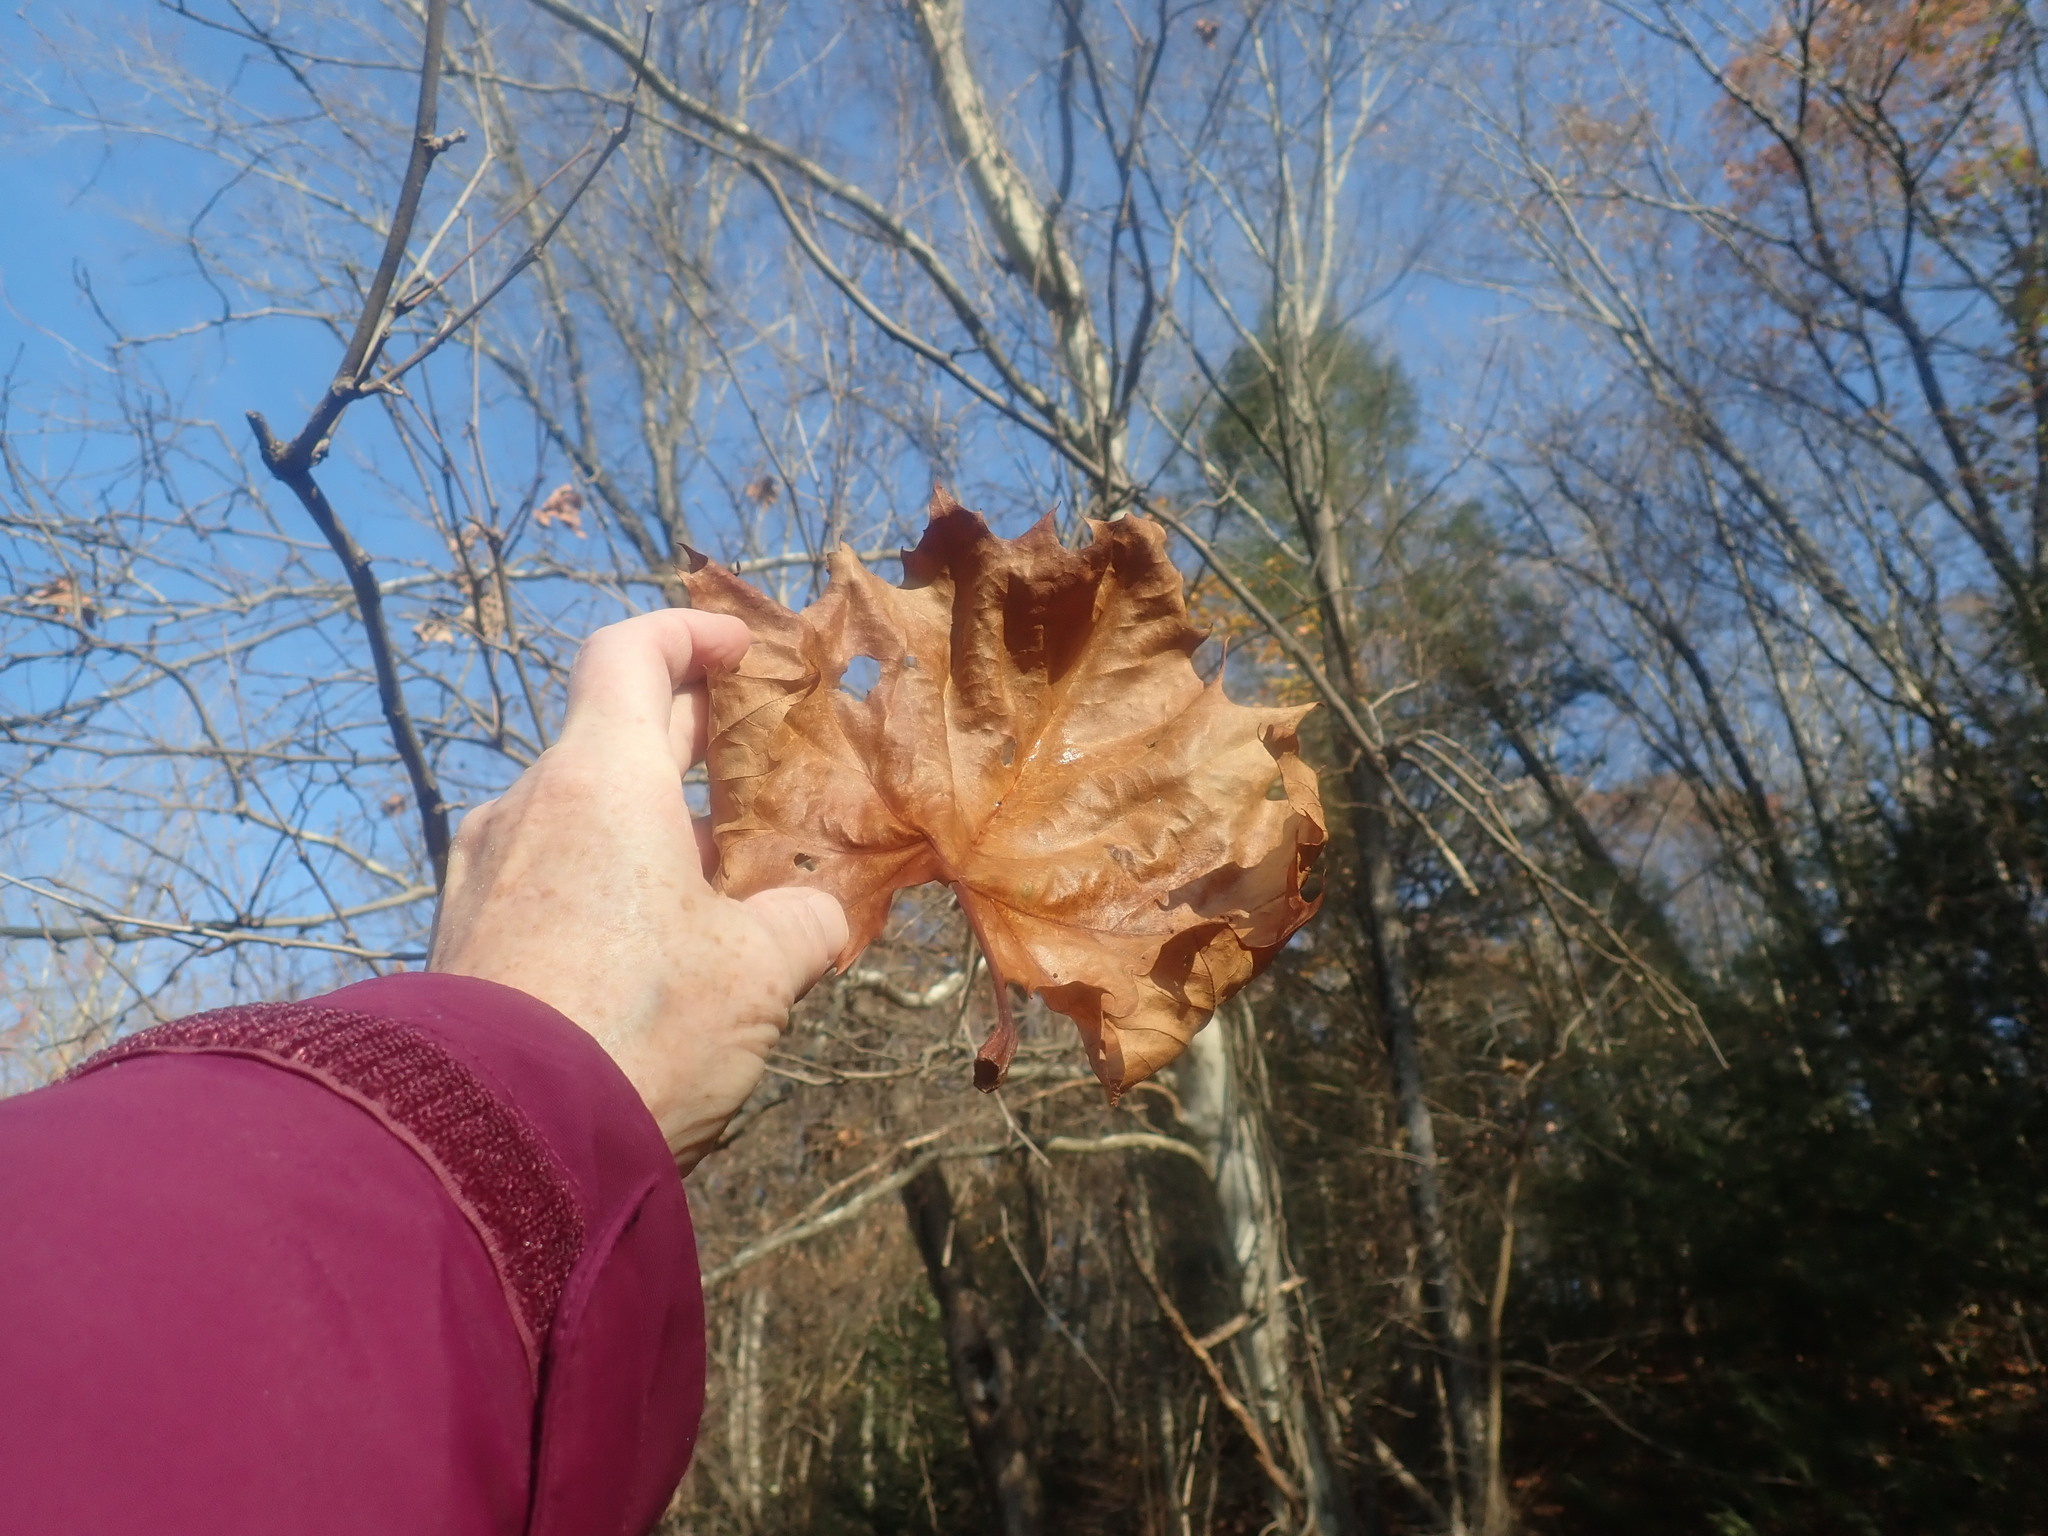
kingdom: Plantae
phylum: Tracheophyta
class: Magnoliopsida
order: Proteales
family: Platanaceae
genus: Platanus
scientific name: Platanus occidentalis
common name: American sycamore
